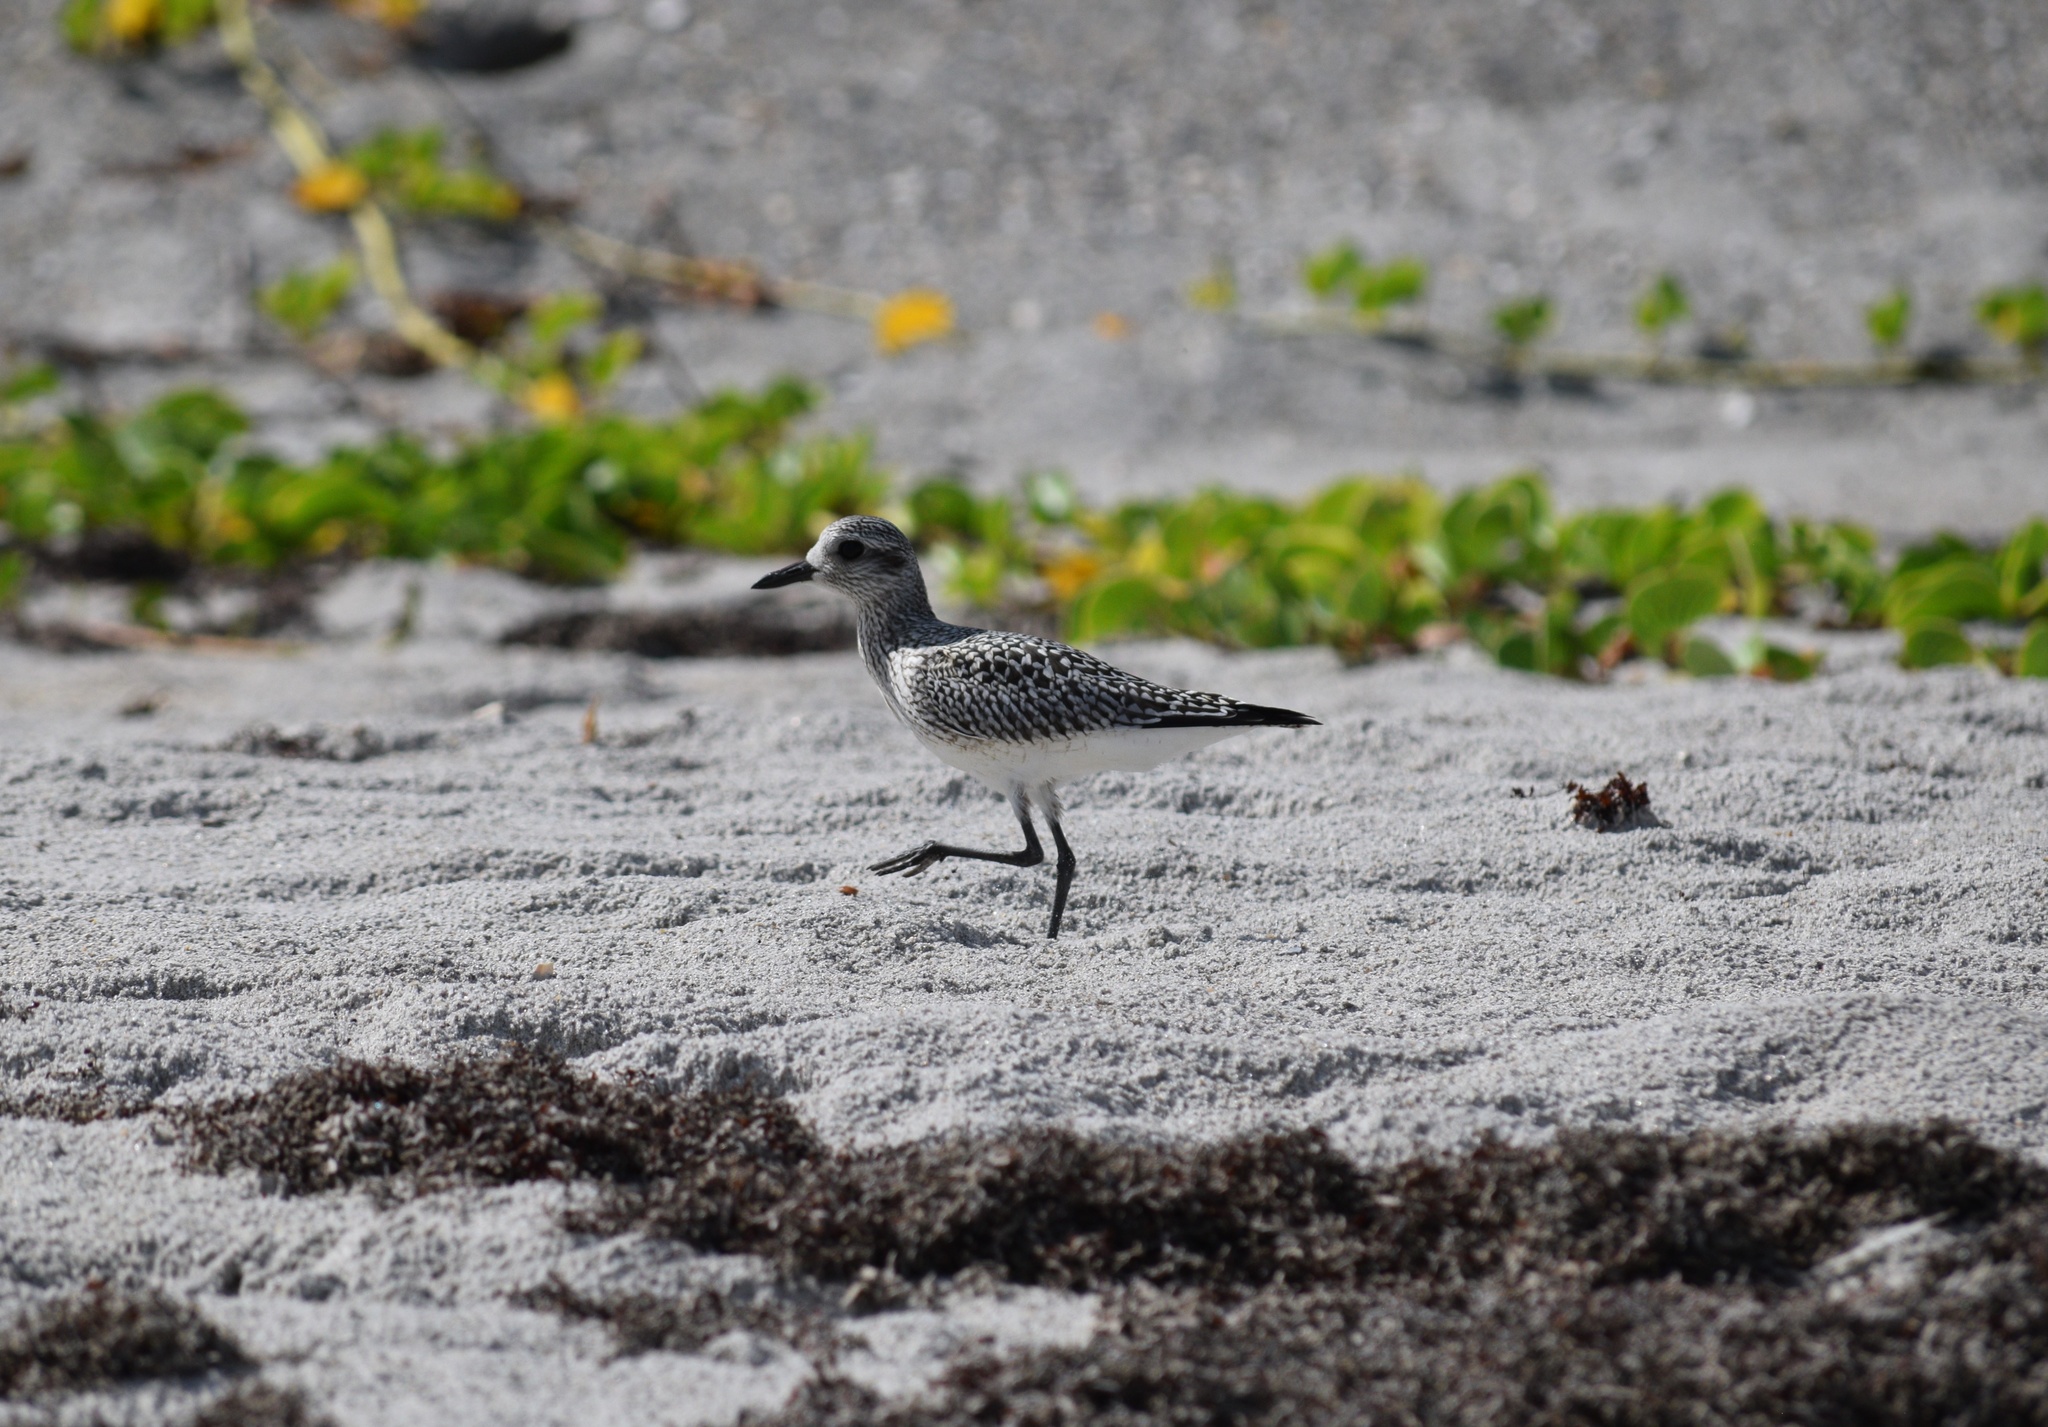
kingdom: Animalia
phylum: Chordata
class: Aves
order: Charadriiformes
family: Charadriidae
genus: Pluvialis
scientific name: Pluvialis squatarola
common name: Grey plover
